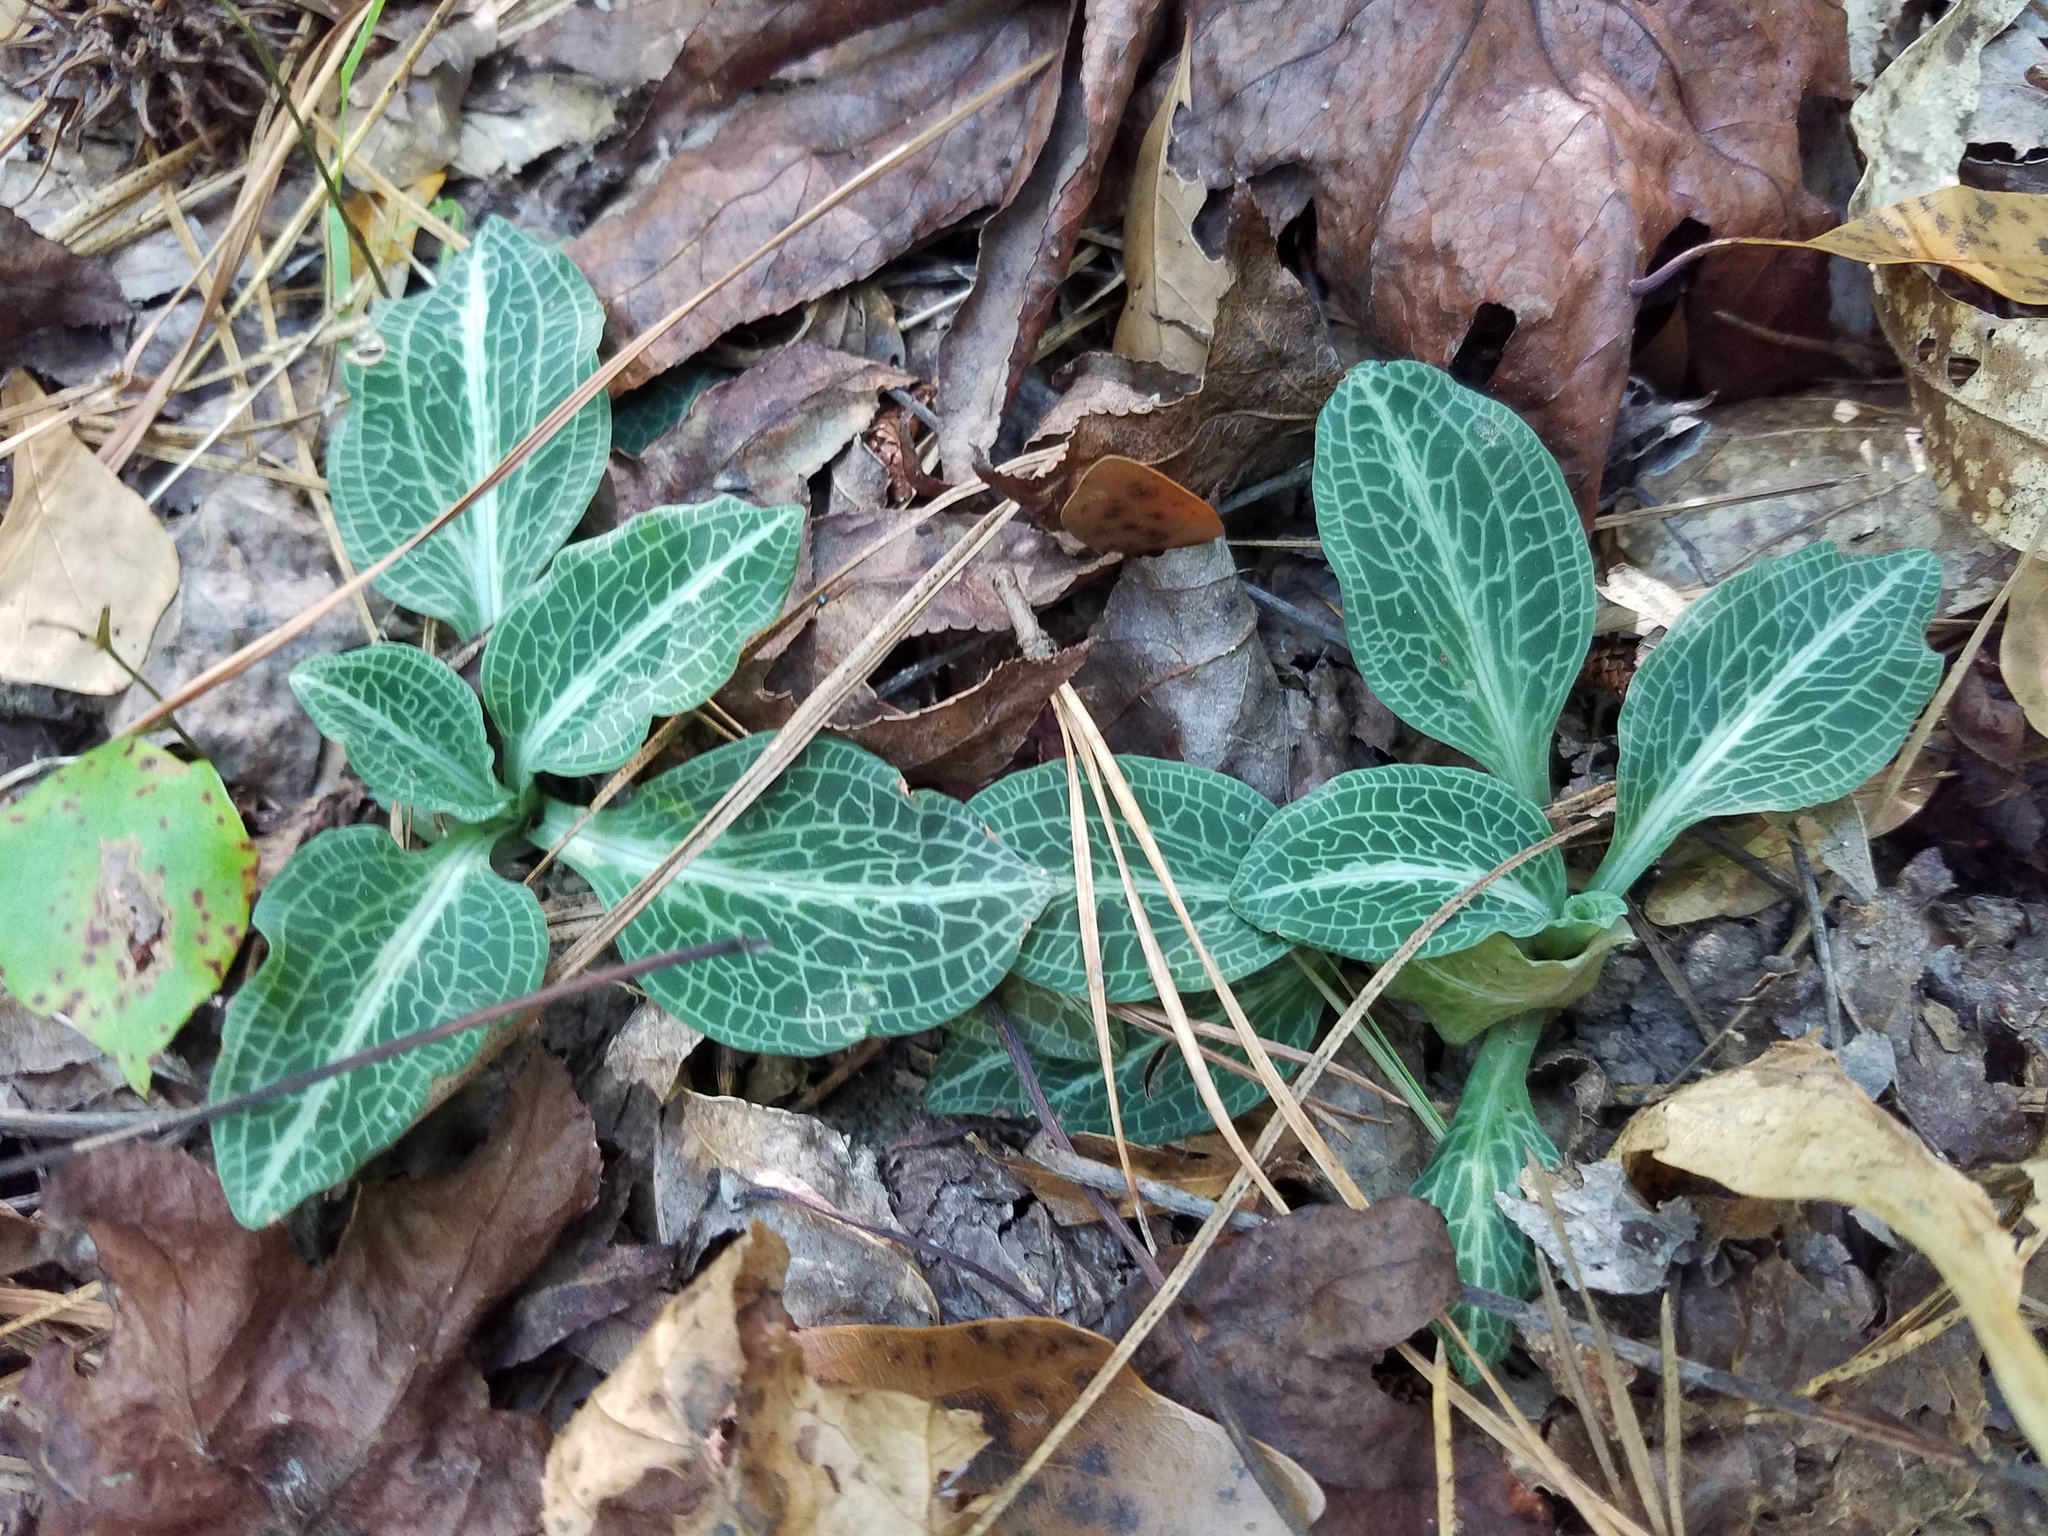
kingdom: Plantae
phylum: Tracheophyta
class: Liliopsida
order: Asparagales
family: Orchidaceae
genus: Goodyera
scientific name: Goodyera pubescens
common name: Downy rattlesnake-plantain
